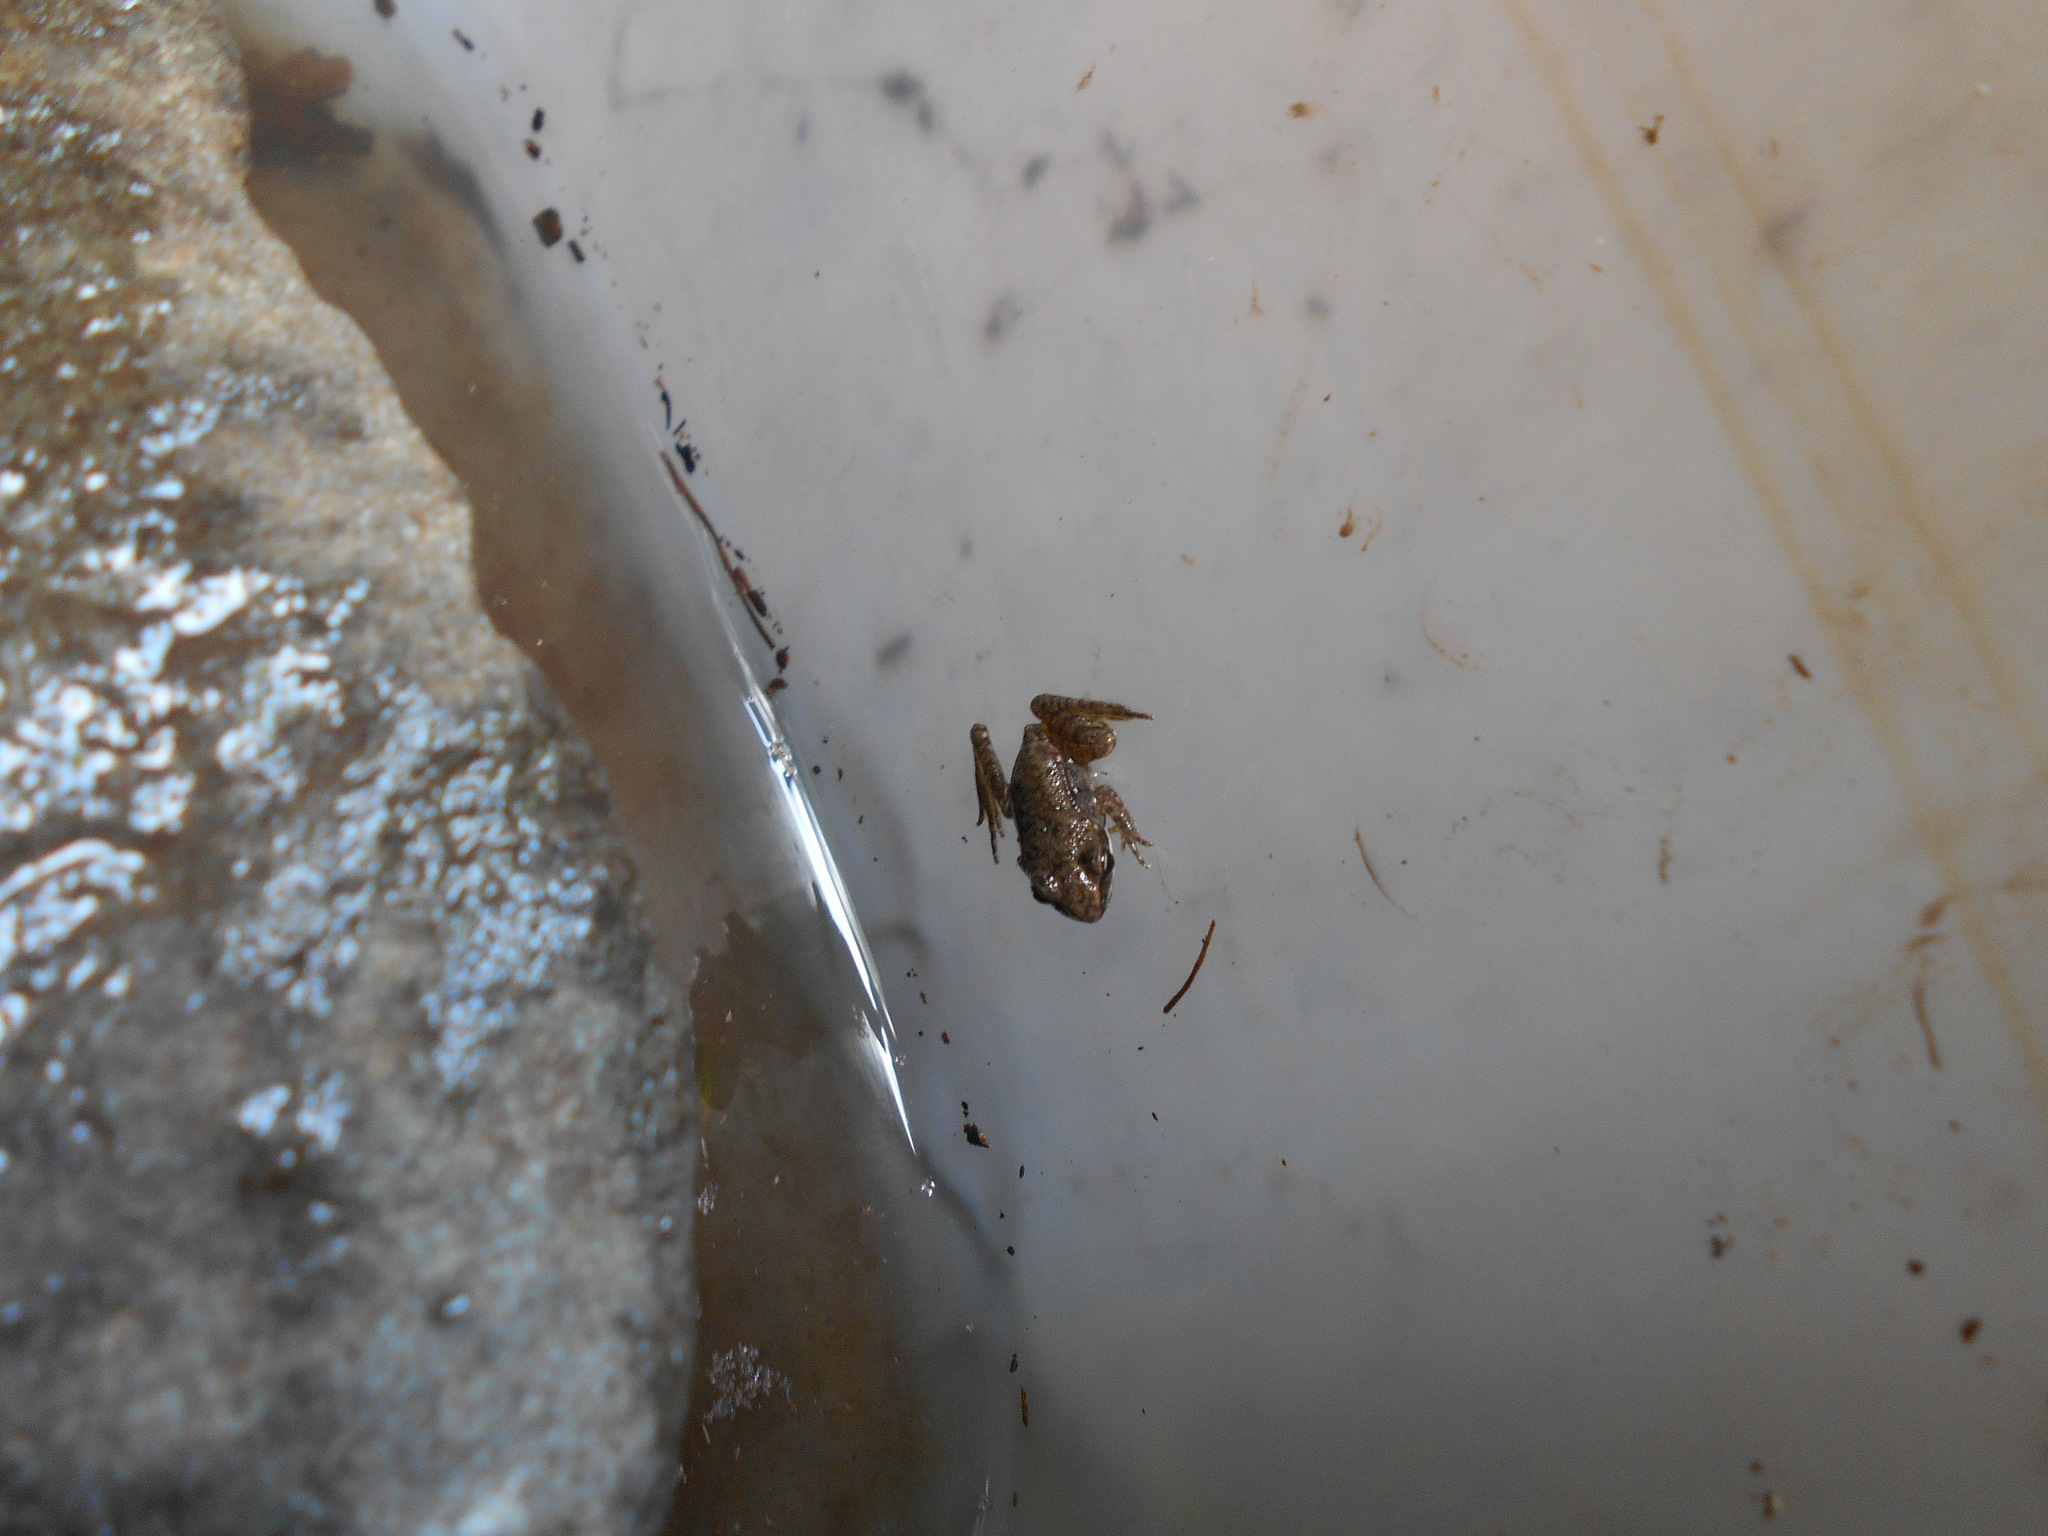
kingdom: Animalia
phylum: Chordata
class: Amphibia
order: Anura
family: Ranidae
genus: Lithobates
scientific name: Lithobates sylvaticus
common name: Wood frog
